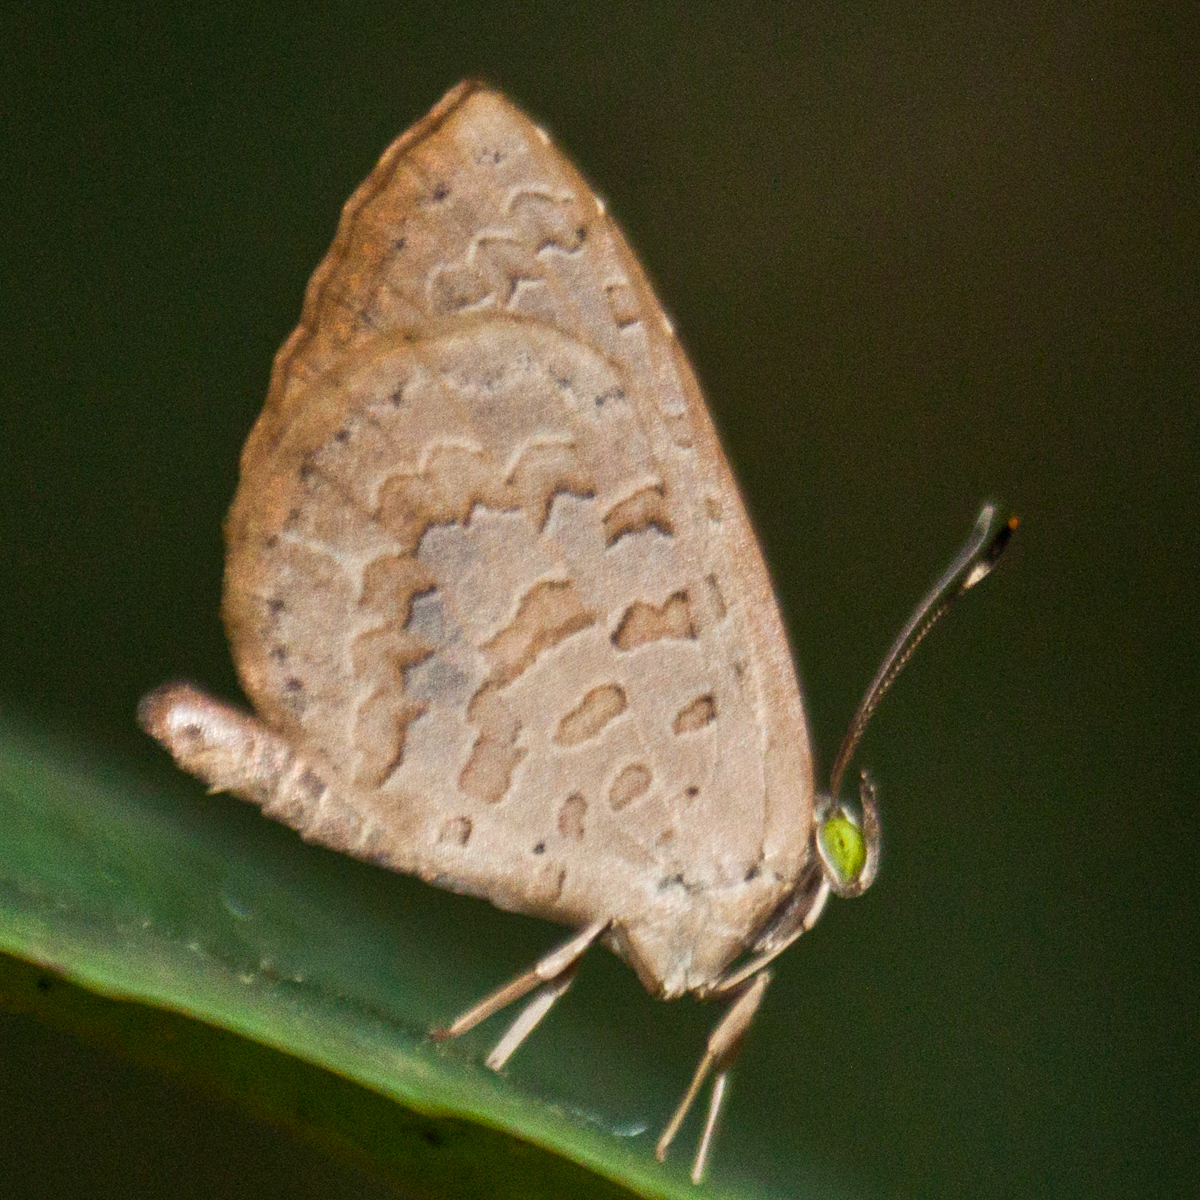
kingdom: Animalia
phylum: Arthropoda
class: Insecta
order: Lepidoptera
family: Lycaenidae
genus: Miletus
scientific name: Miletus chinensis
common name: Common brownie
